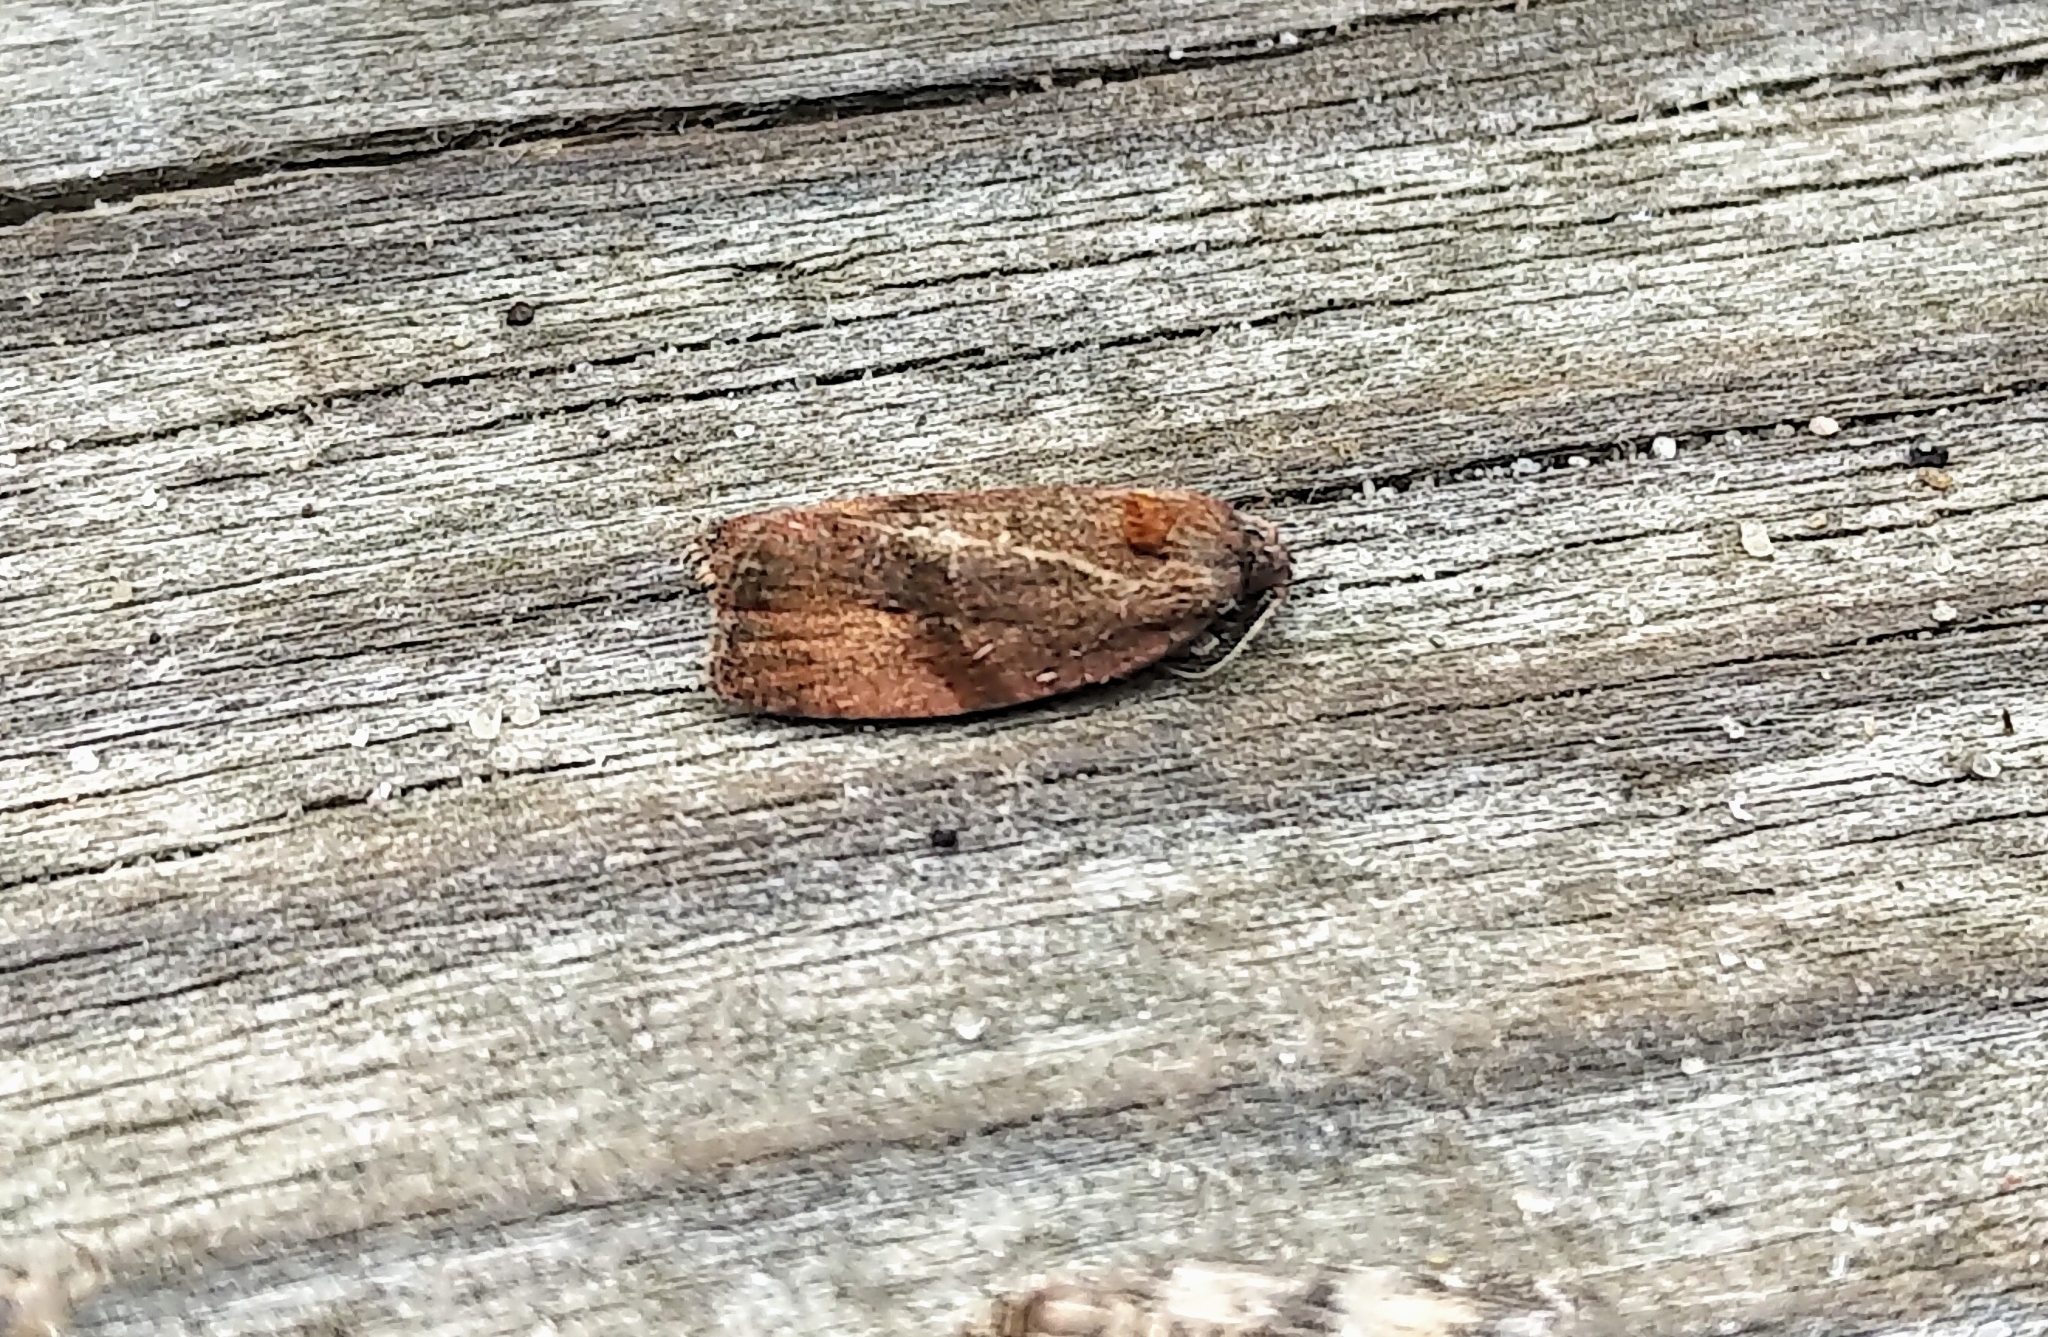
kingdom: Animalia
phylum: Arthropoda
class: Insecta
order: Lepidoptera
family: Tortricidae
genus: Evora
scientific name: Evora hemidesma
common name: Spirea leaftier moth
